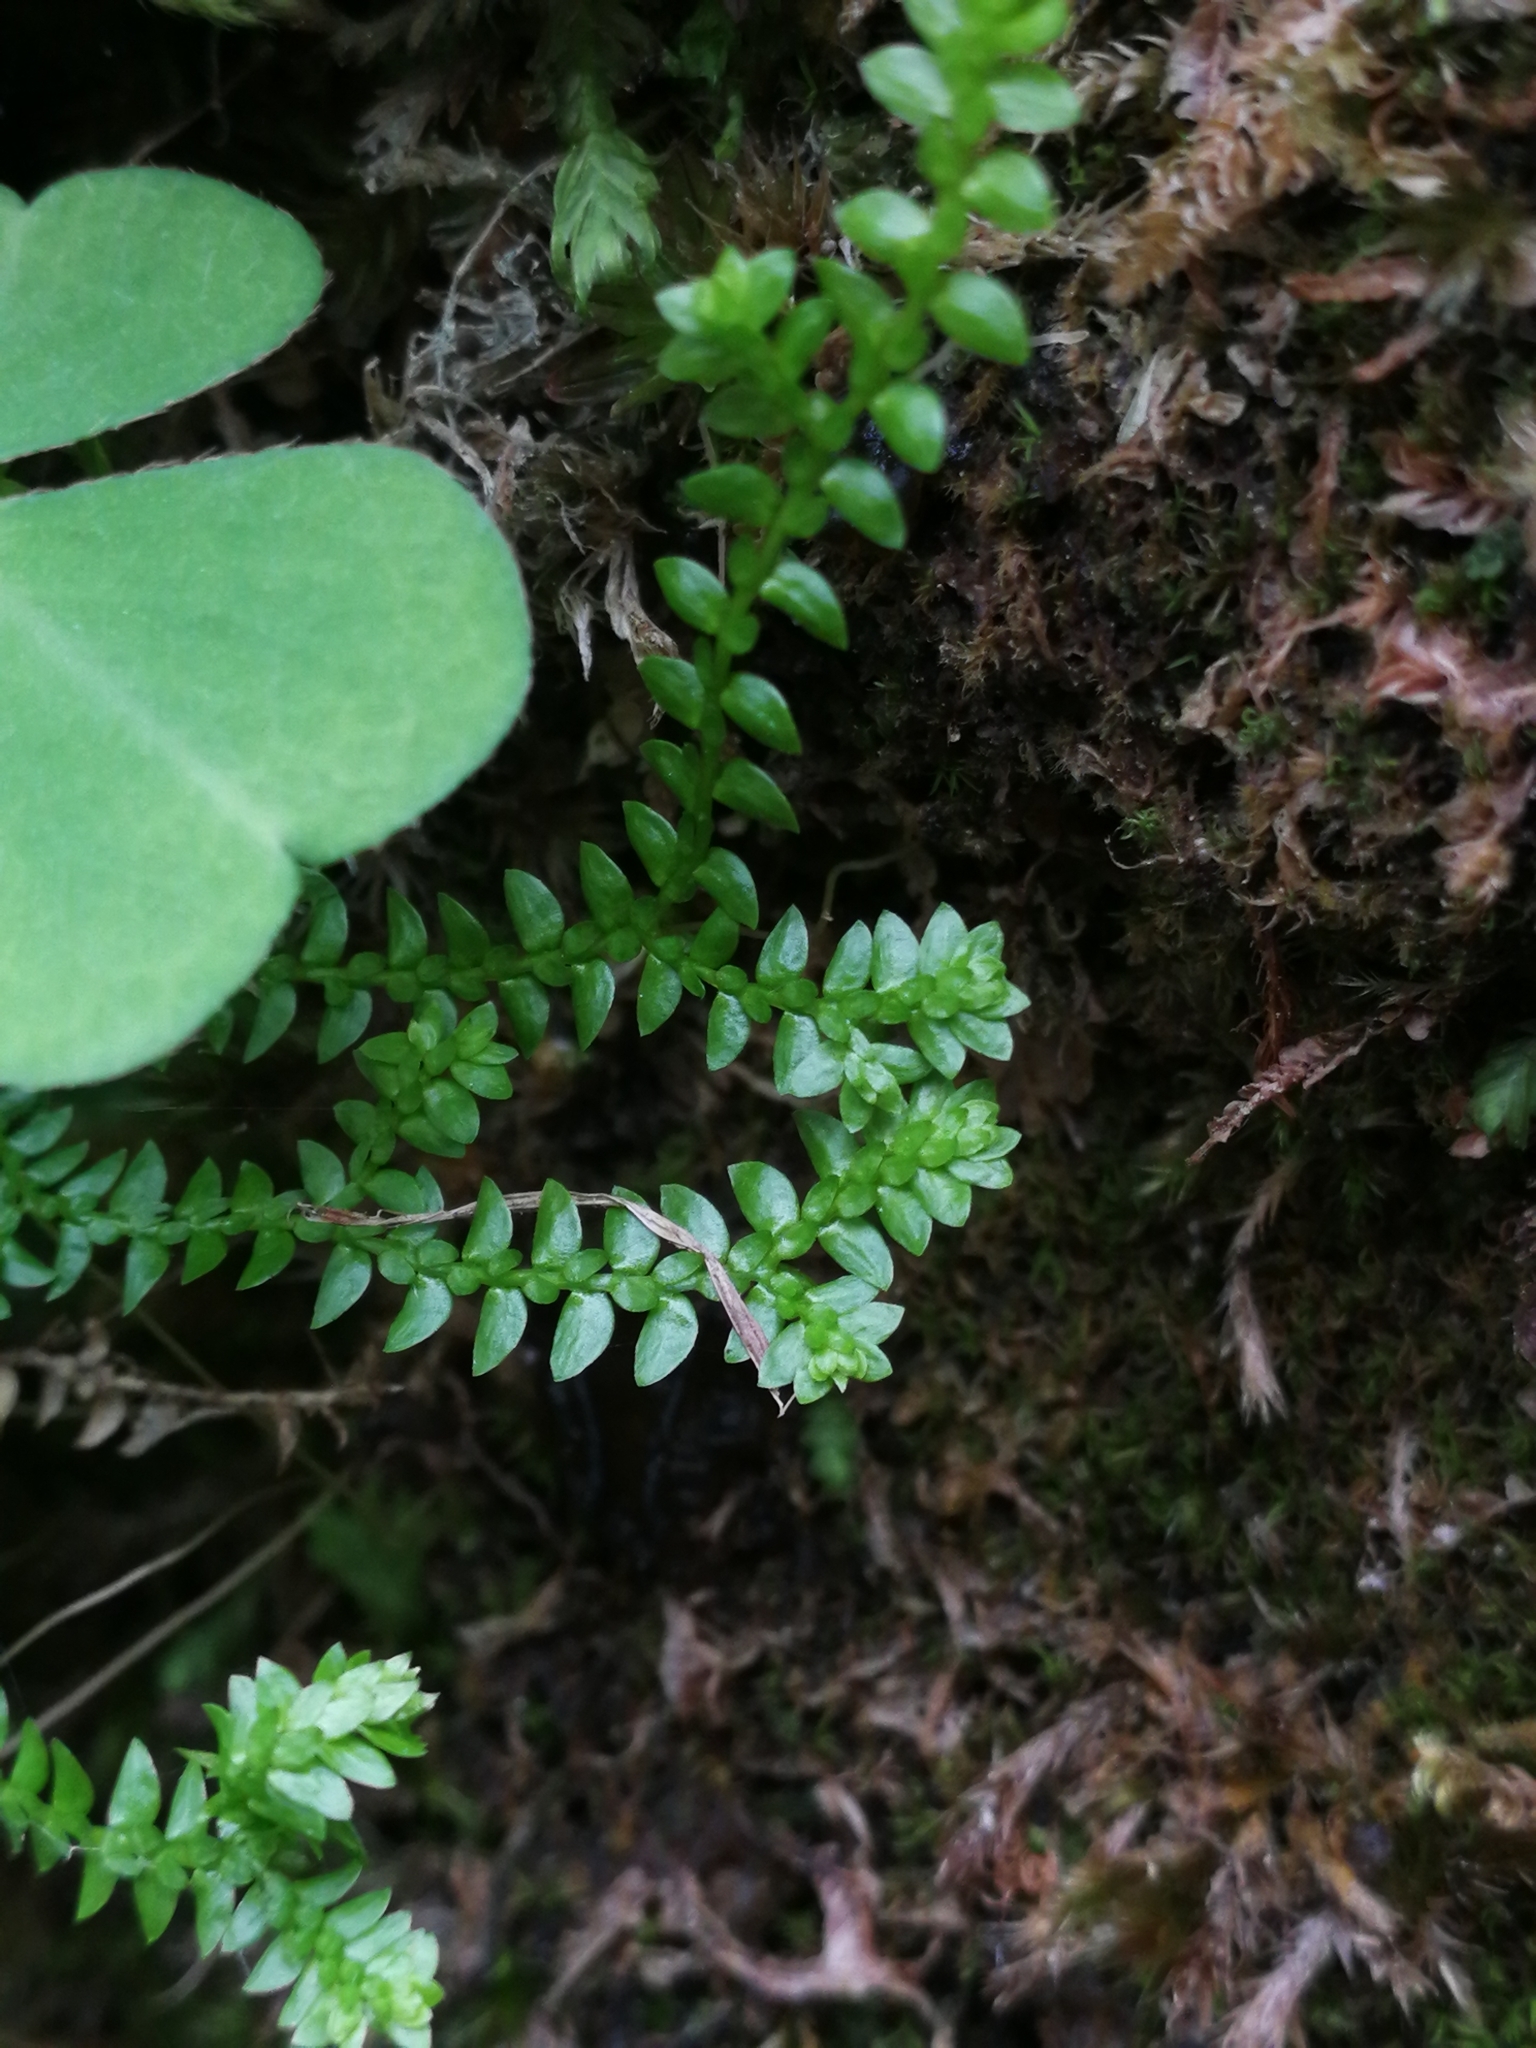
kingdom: Plantae
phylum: Tracheophyta
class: Lycopodiopsida
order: Selaginellales
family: Selaginellaceae
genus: Selaginella
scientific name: Selaginella helvetica
